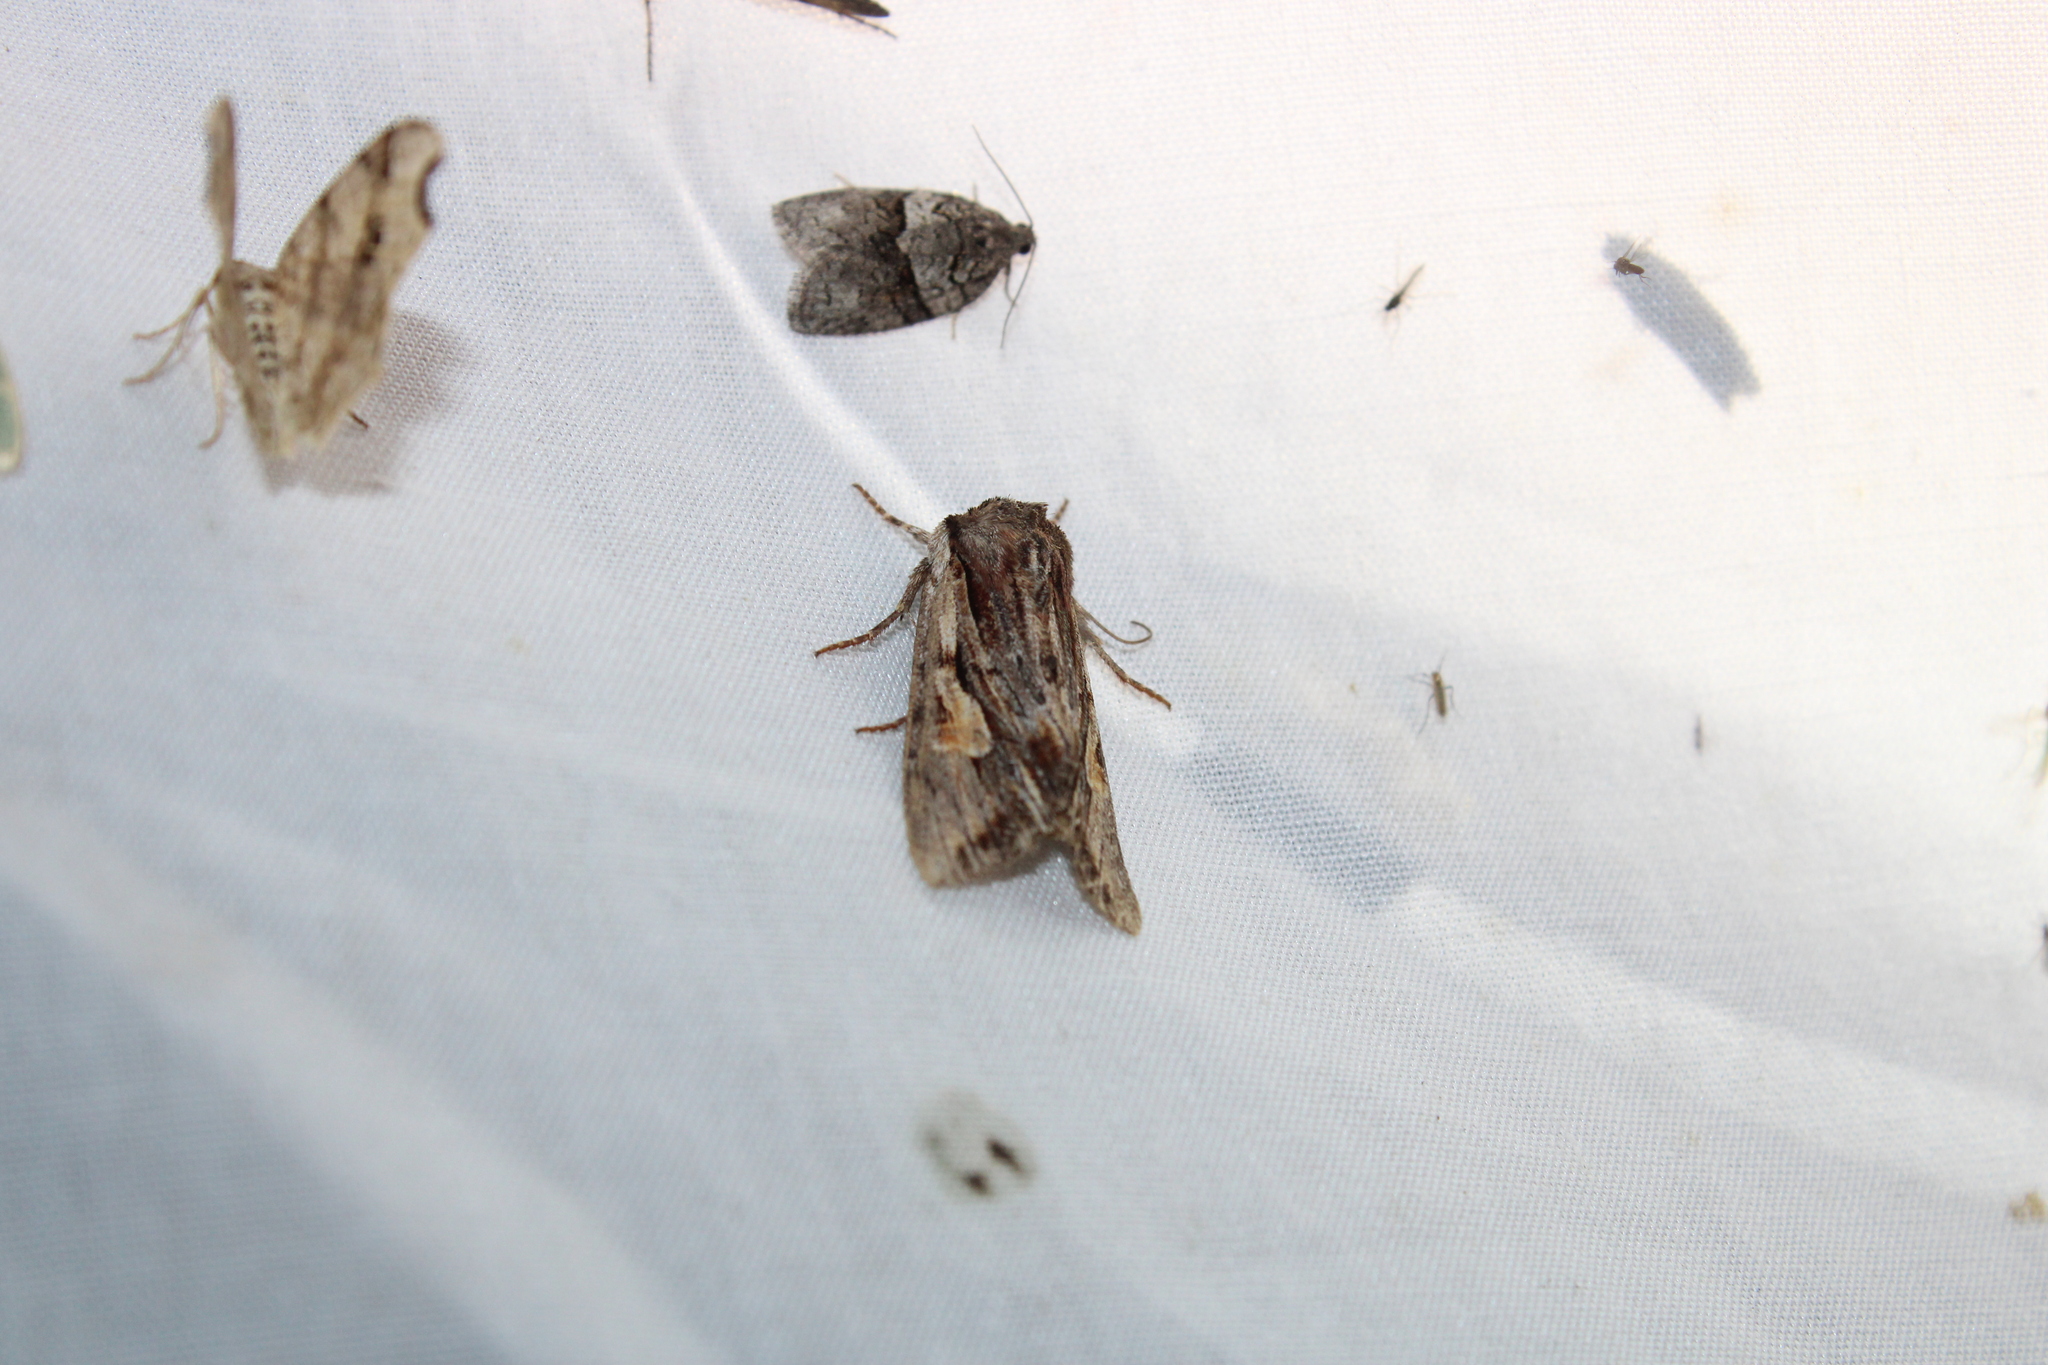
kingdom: Animalia
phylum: Arthropoda
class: Insecta
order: Lepidoptera
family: Noctuidae
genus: Achatia
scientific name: Achatia evicta
